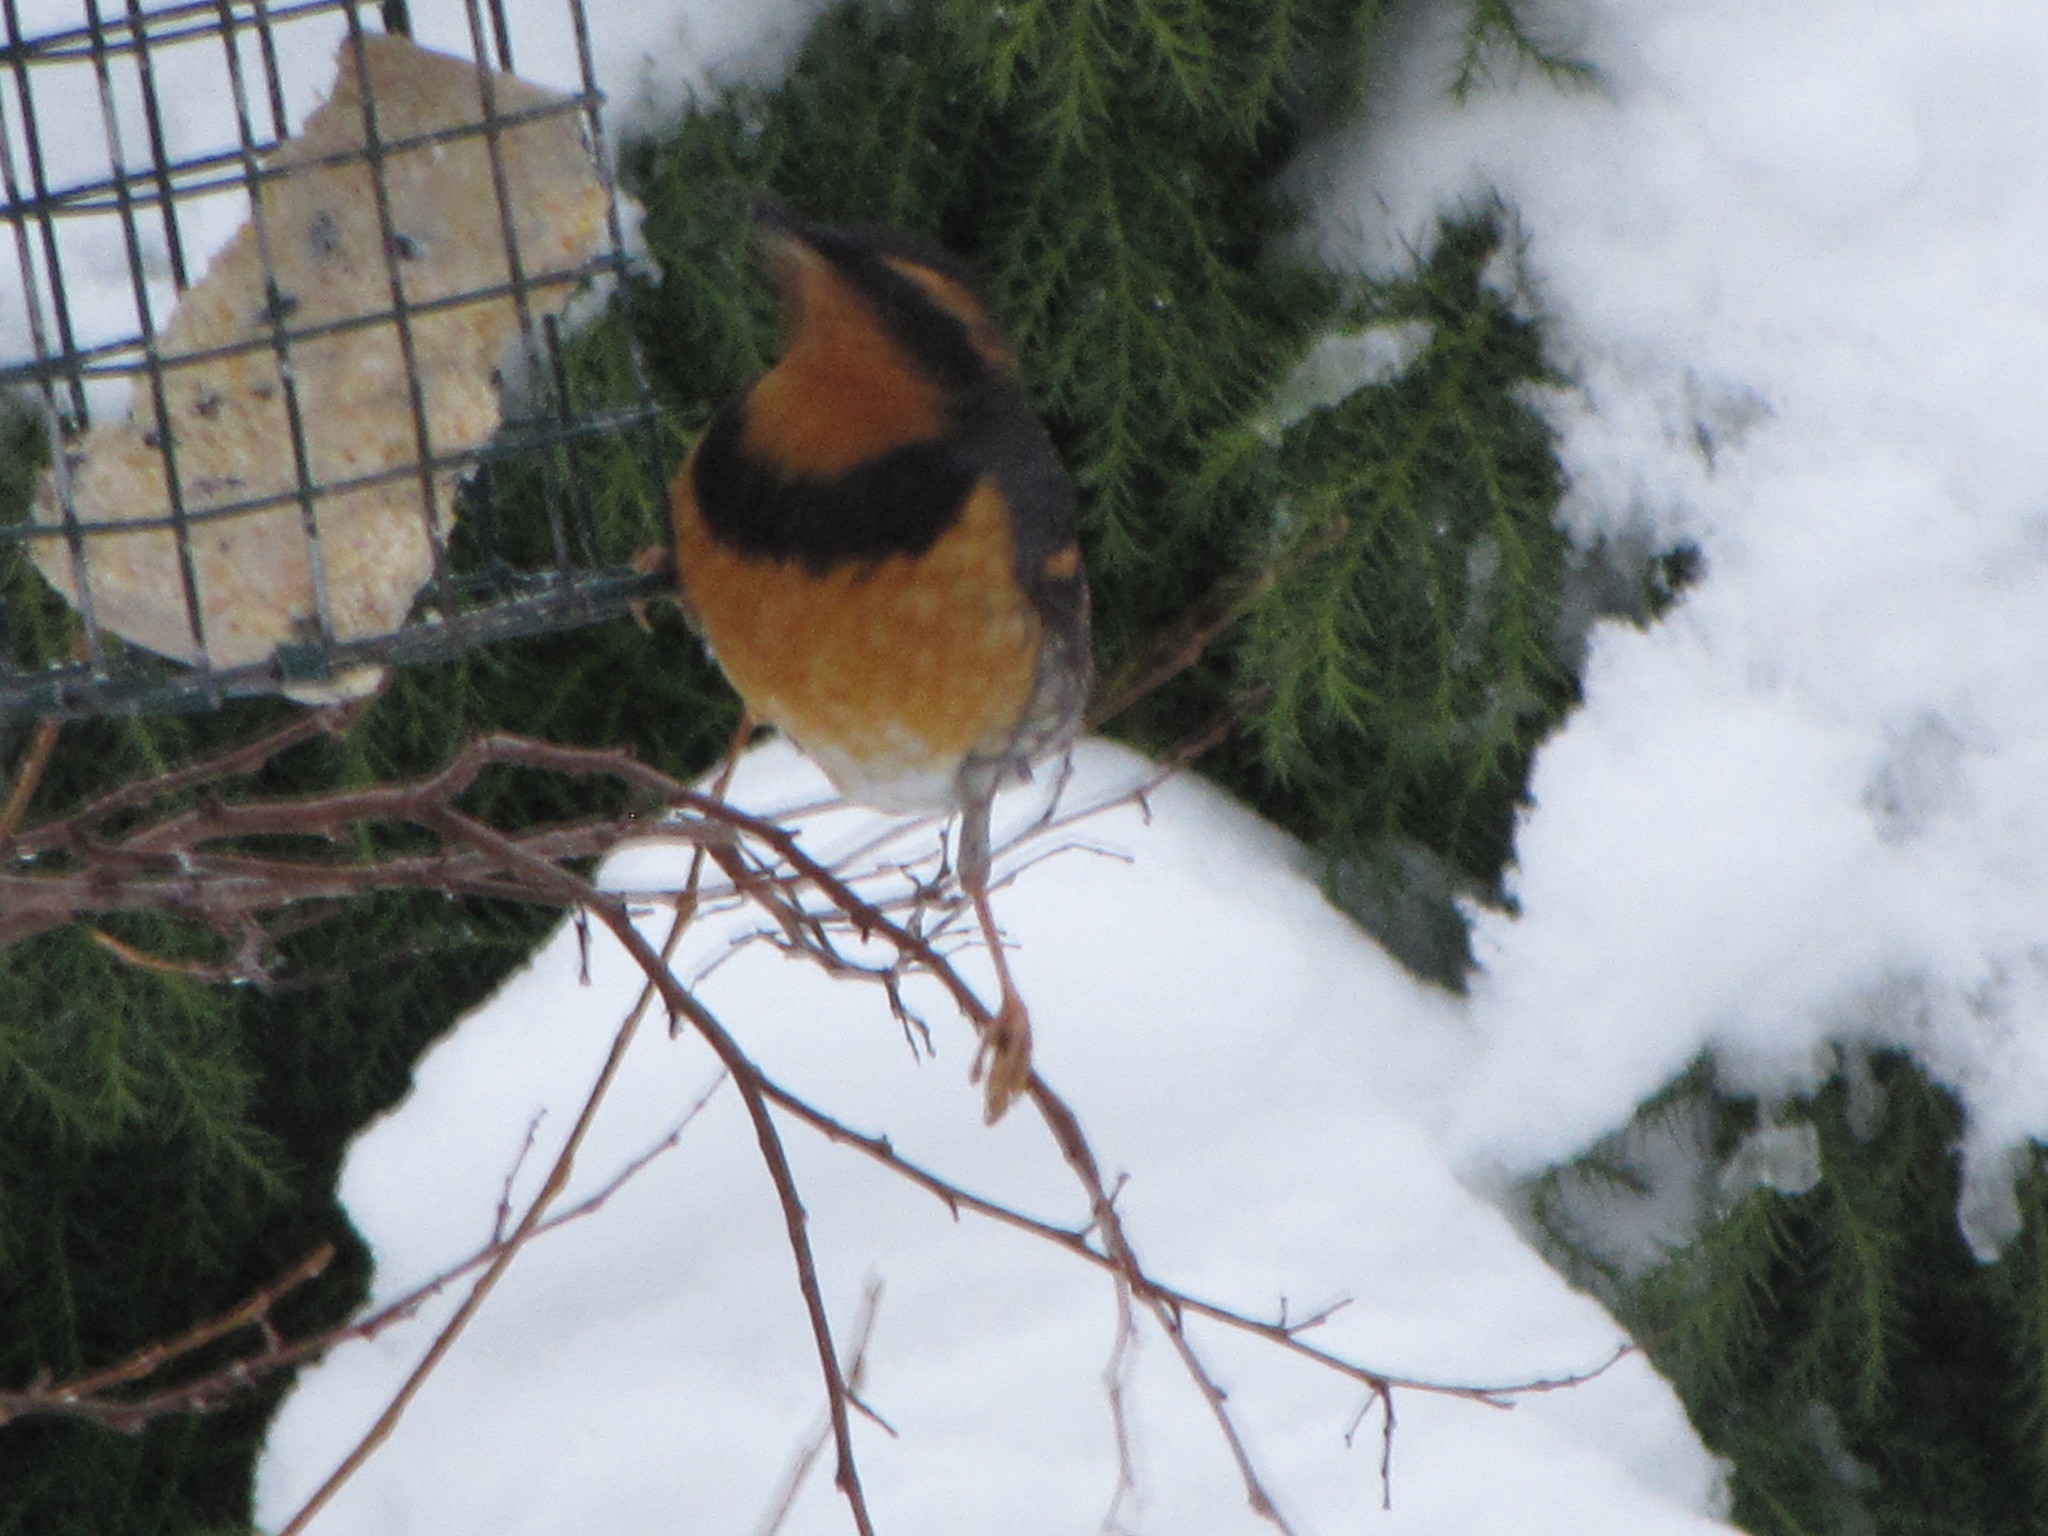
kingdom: Animalia
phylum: Chordata
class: Aves
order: Passeriformes
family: Turdidae
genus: Ixoreus
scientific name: Ixoreus naevius
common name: Varied thrush
